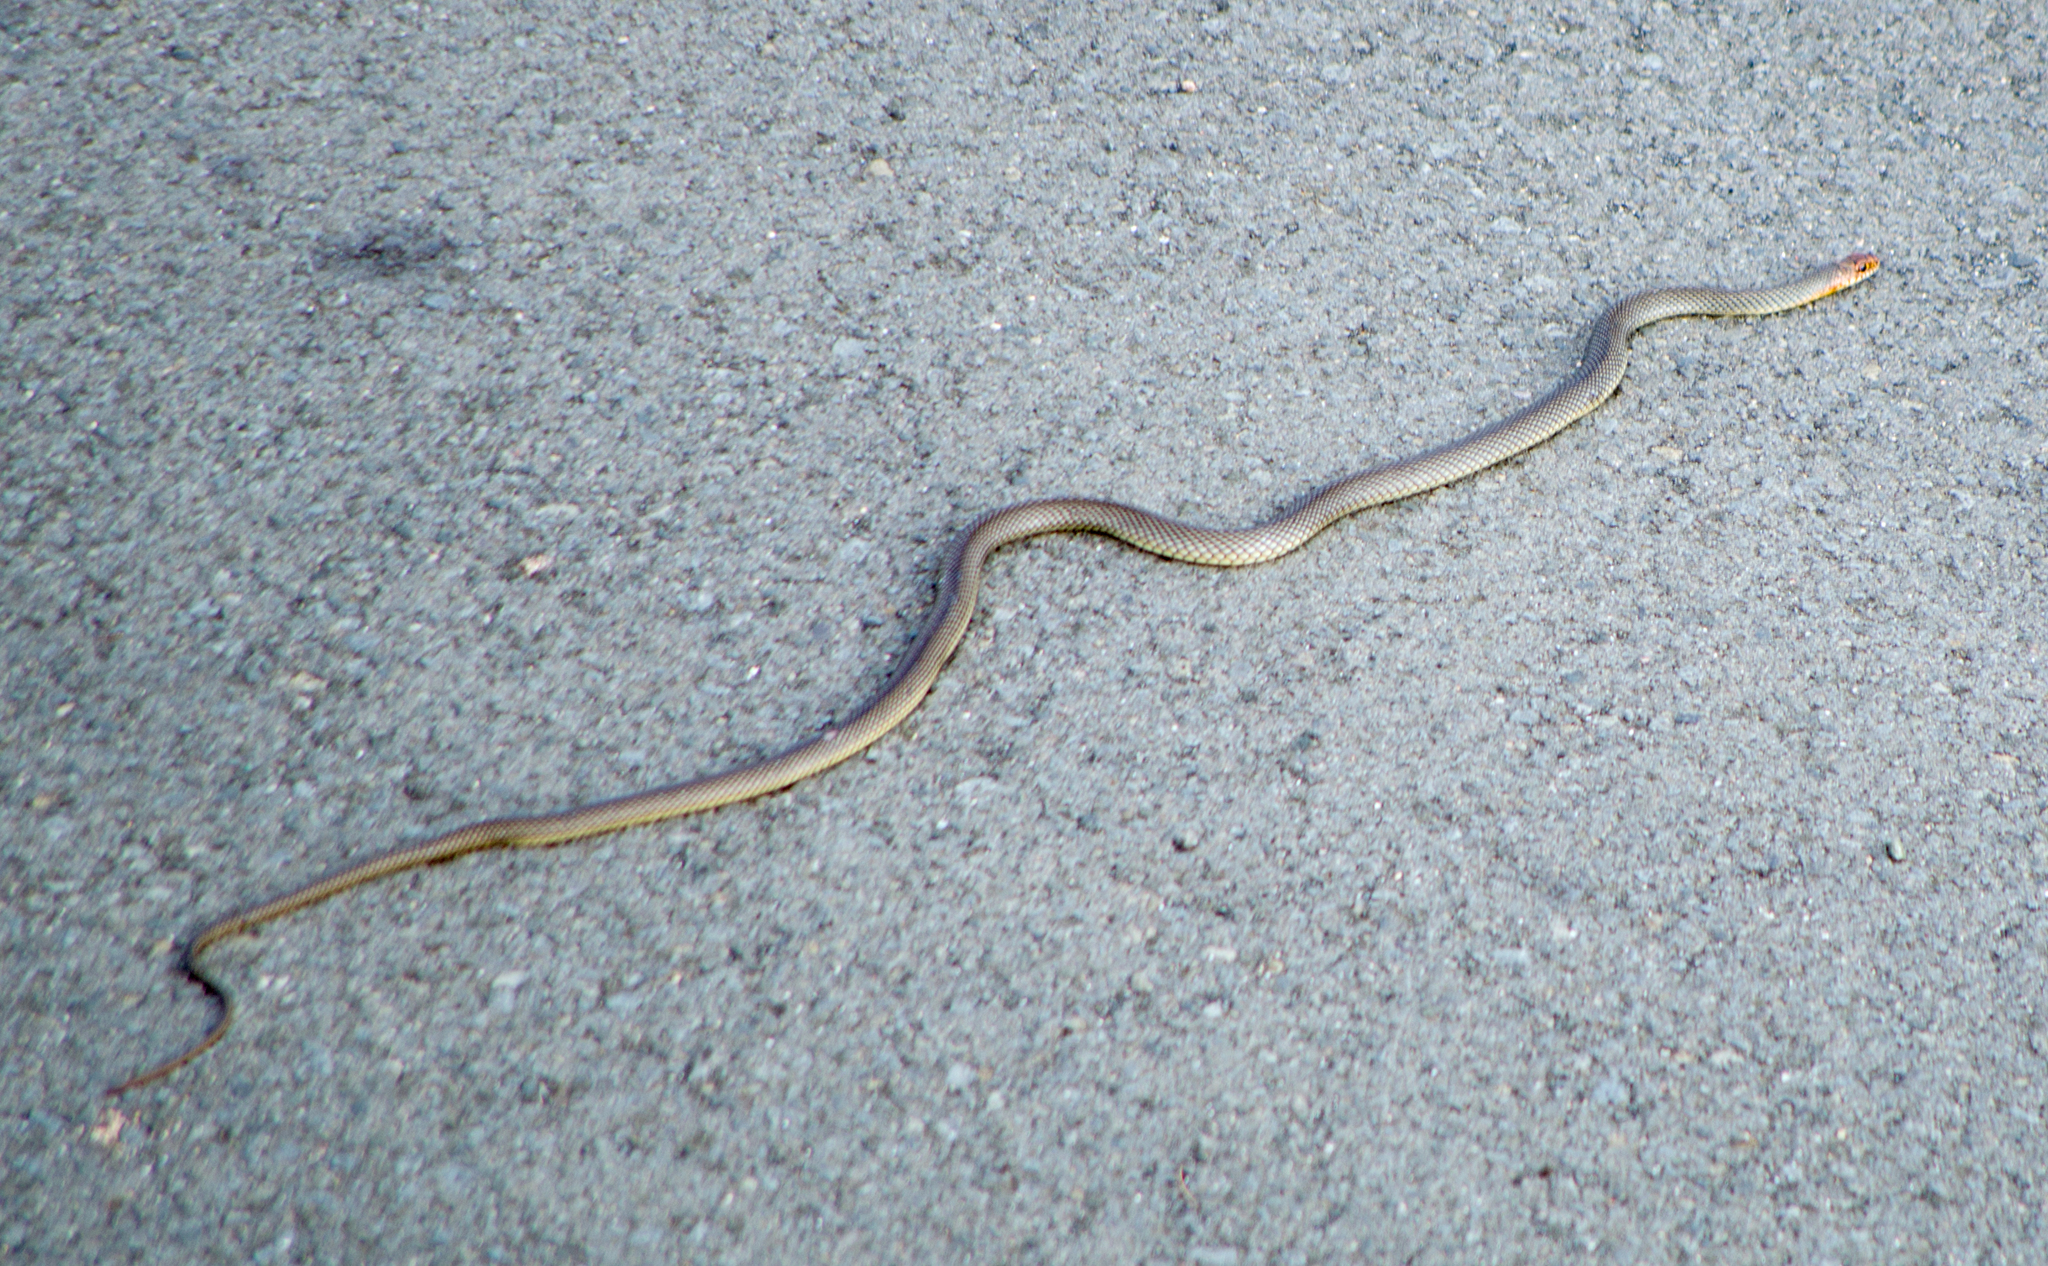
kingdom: Animalia
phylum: Chordata
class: Squamata
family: Colubridae
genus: Dolichophis
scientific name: Dolichophis caspius
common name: Large whip snake
